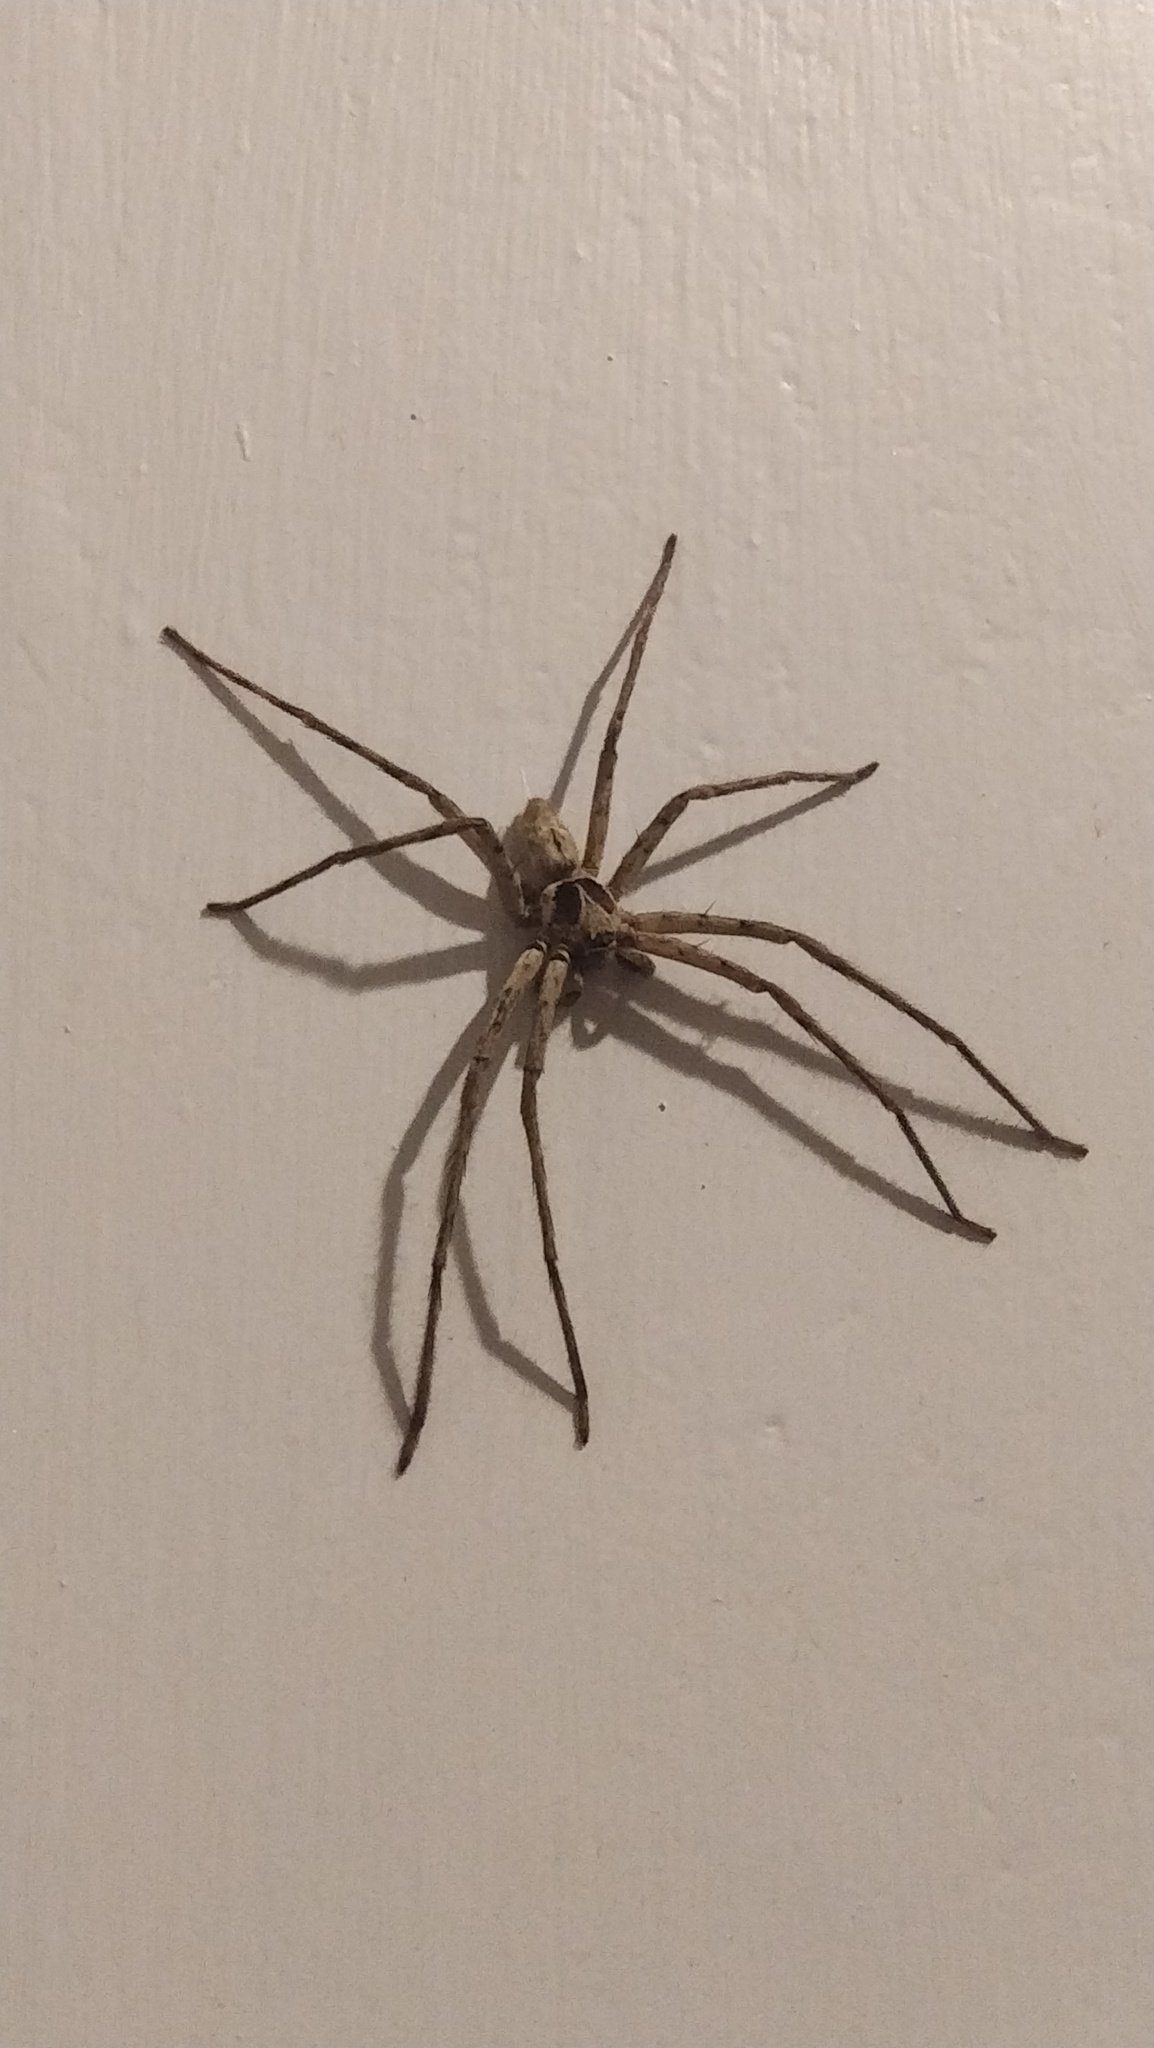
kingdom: Animalia
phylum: Arthropoda
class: Arachnida
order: Araneae
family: Sparassidae
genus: Heteropoda
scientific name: Heteropoda venatoria
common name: Huntsman spider
